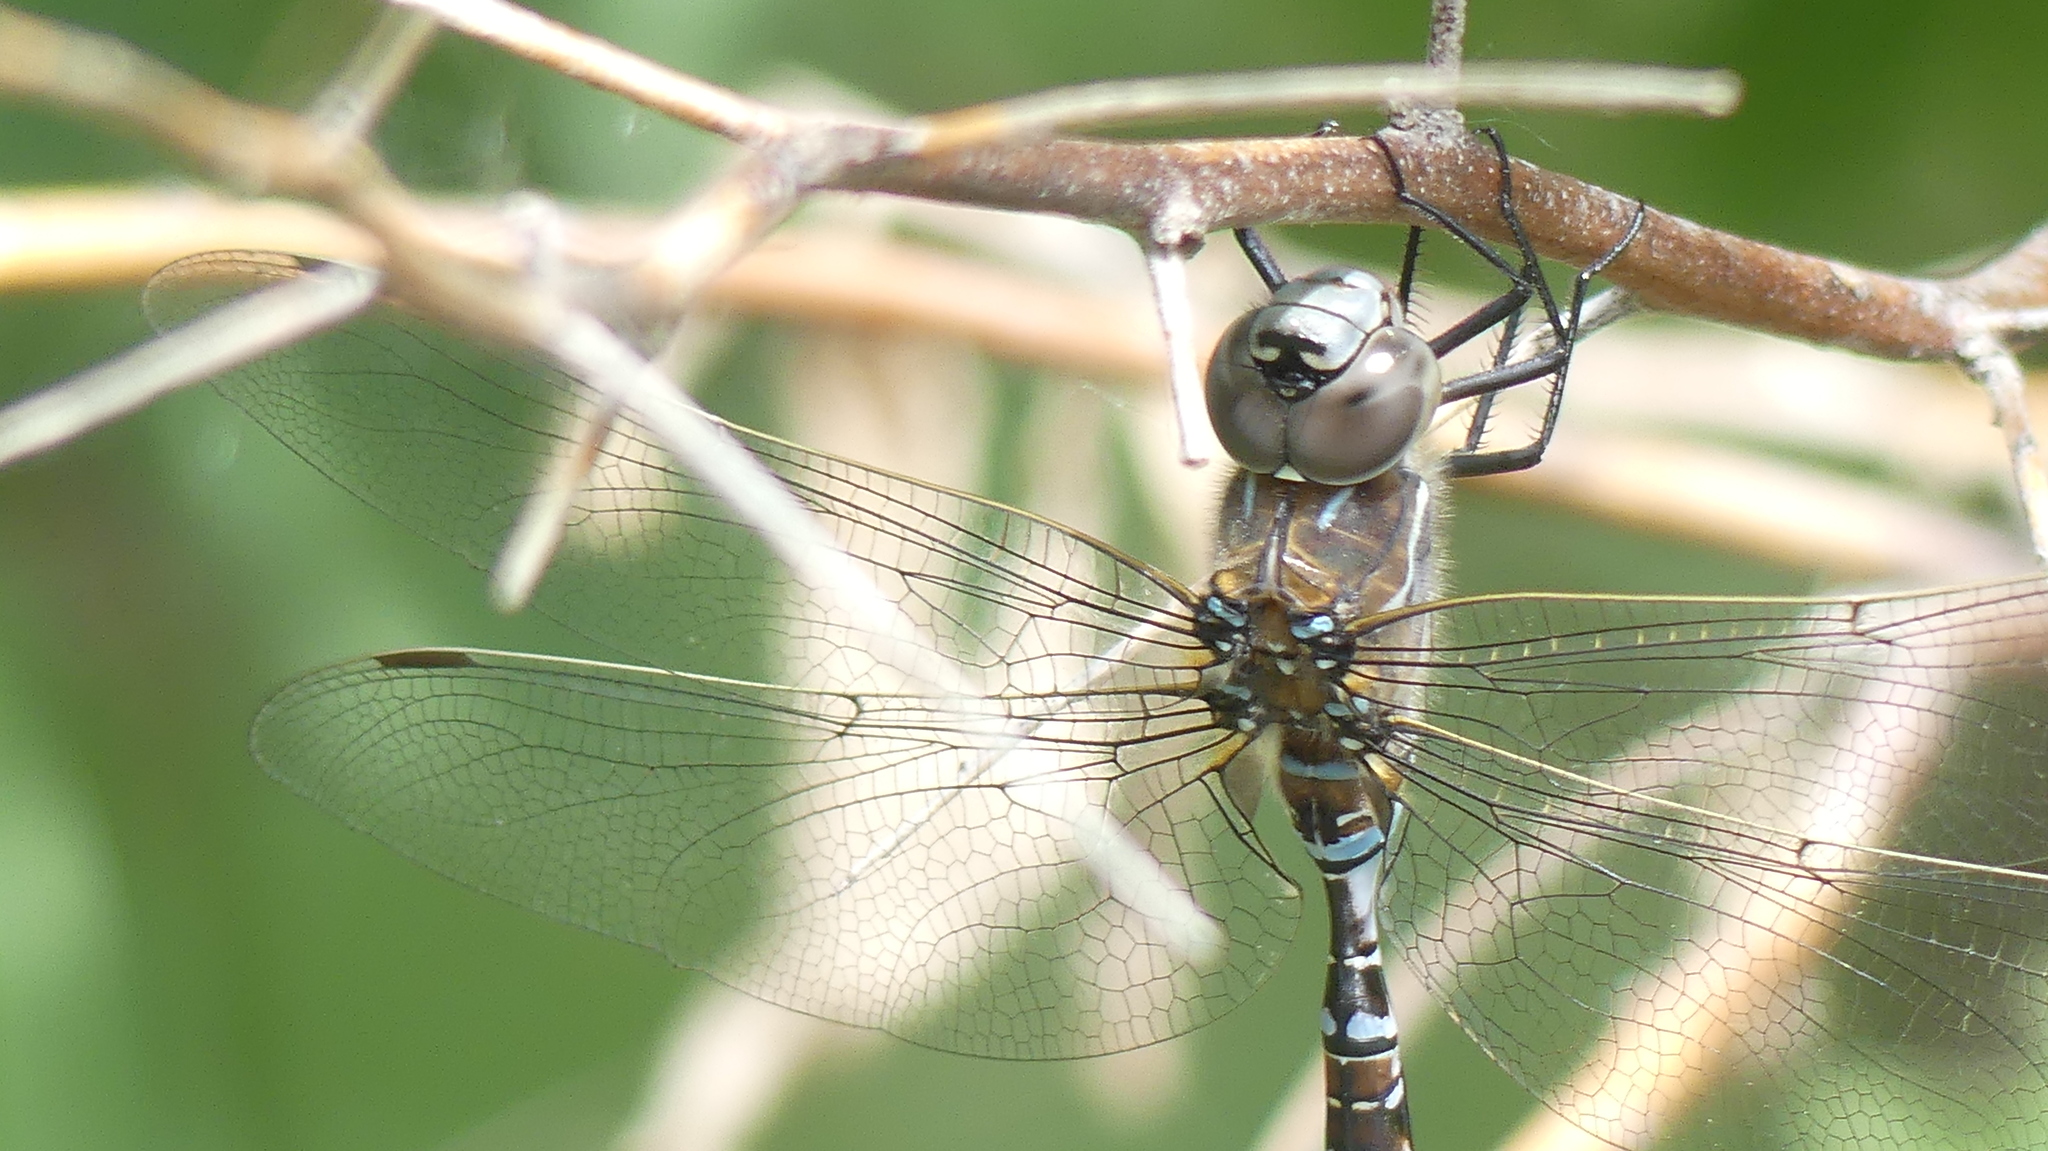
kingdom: Animalia
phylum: Arthropoda
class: Insecta
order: Odonata
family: Aeshnidae
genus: Aeshna
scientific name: Aeshna interrupta
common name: Variable darner
